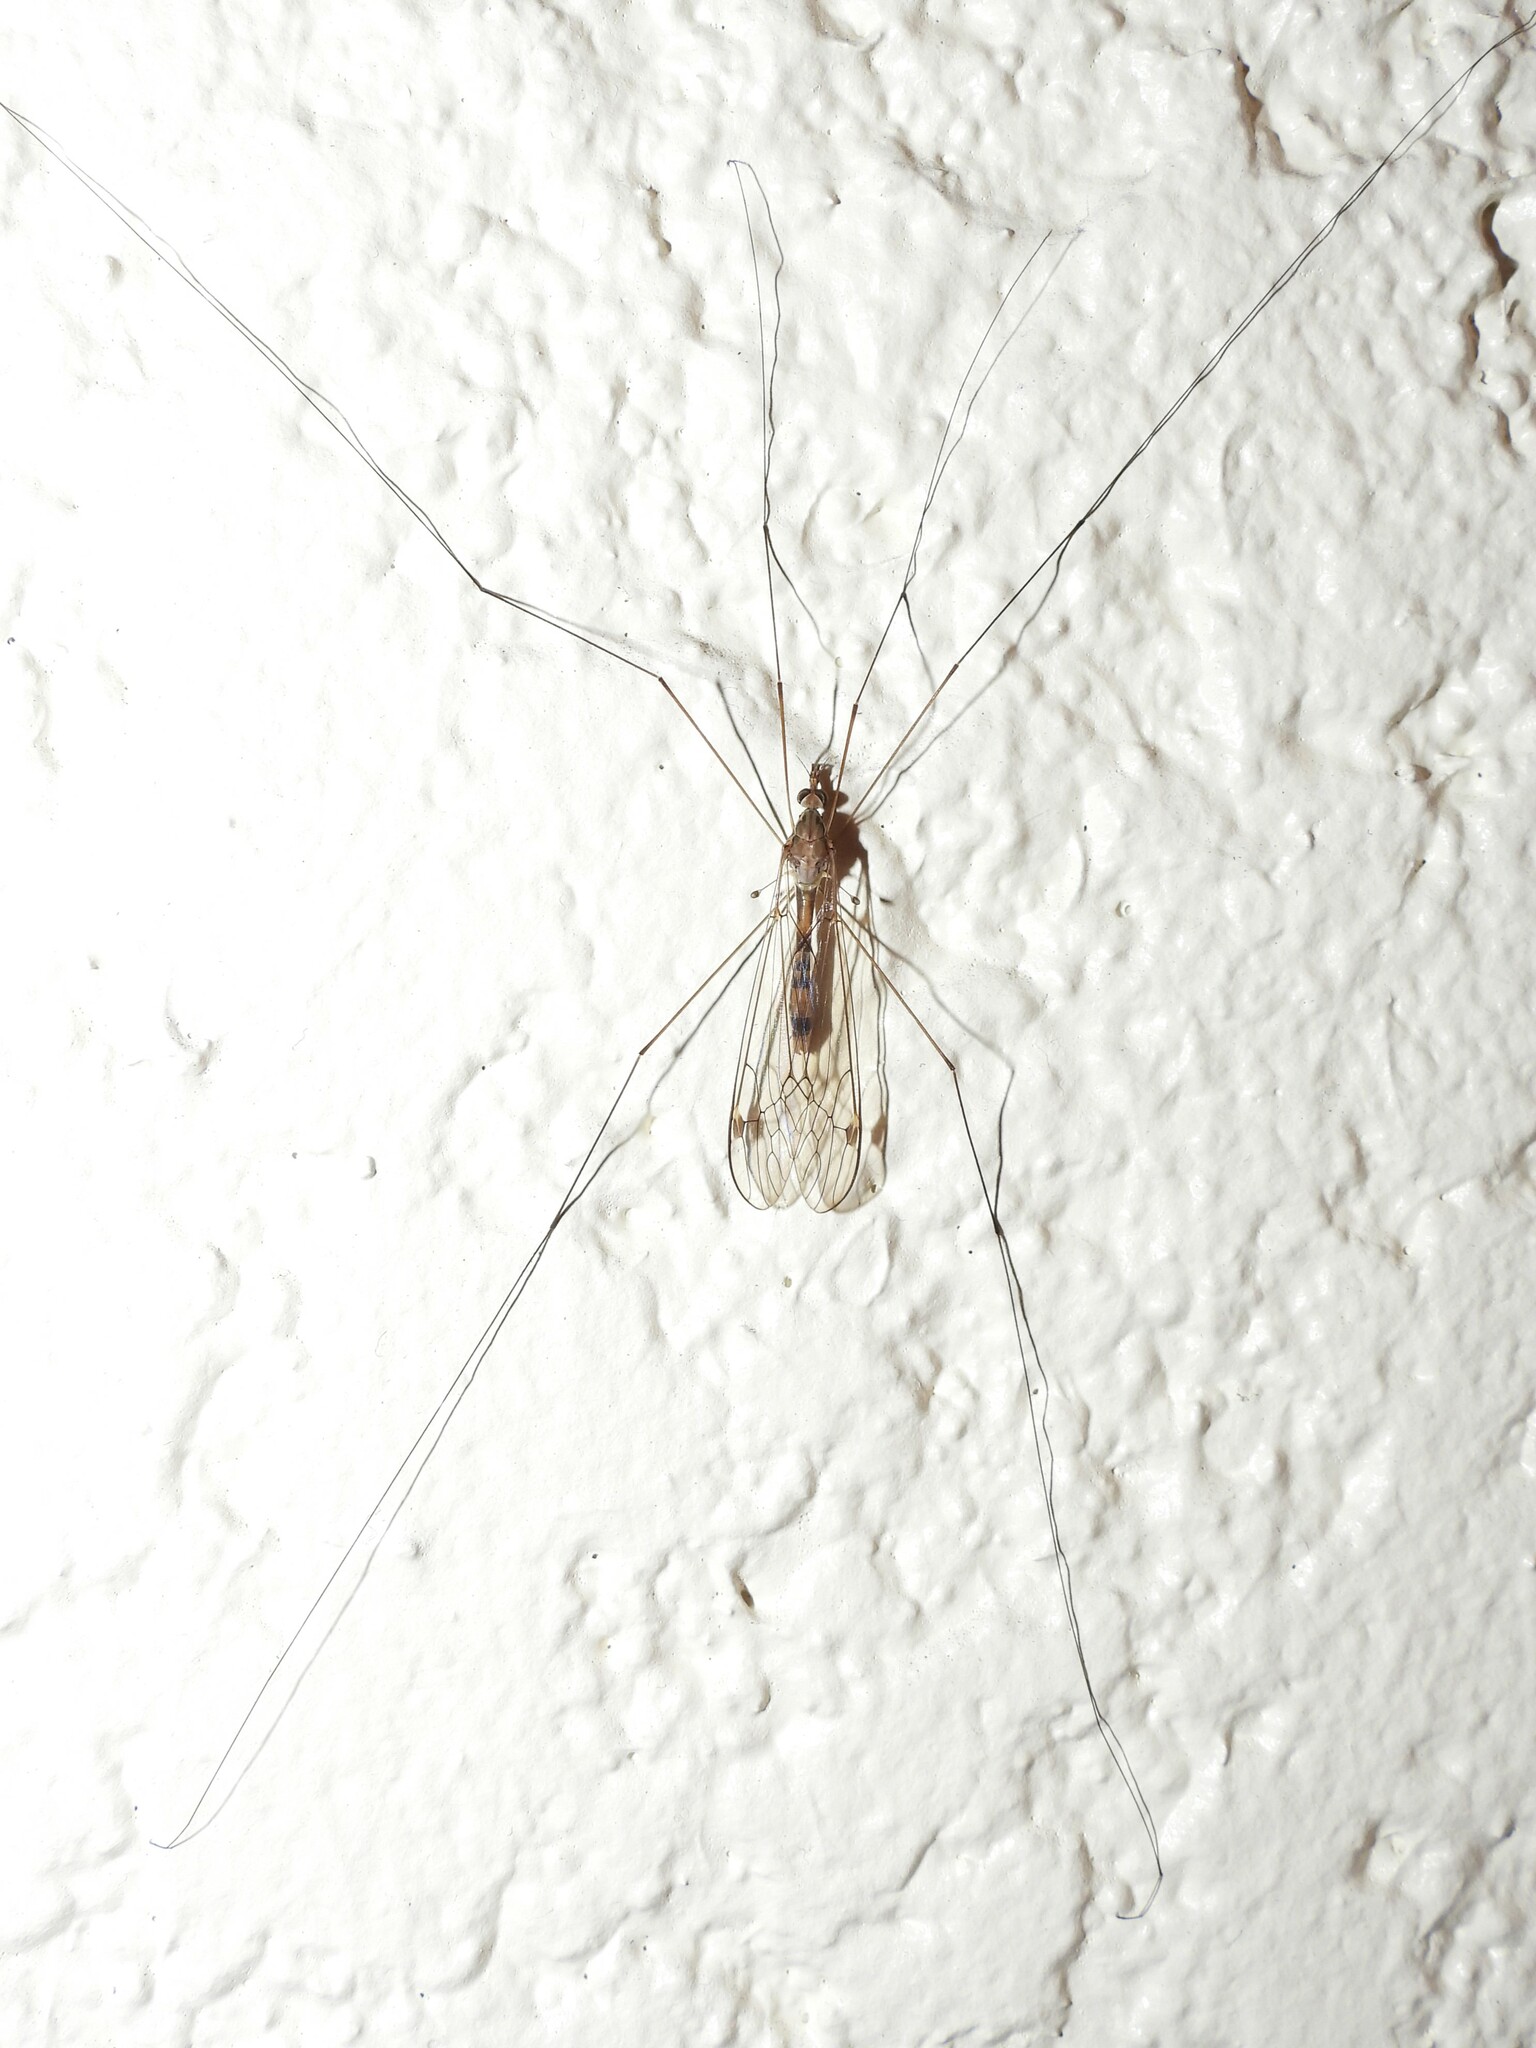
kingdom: Animalia
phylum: Arthropoda
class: Insecta
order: Diptera
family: Tipulidae
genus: Maekistocera
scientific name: Maekistocera longipennis
